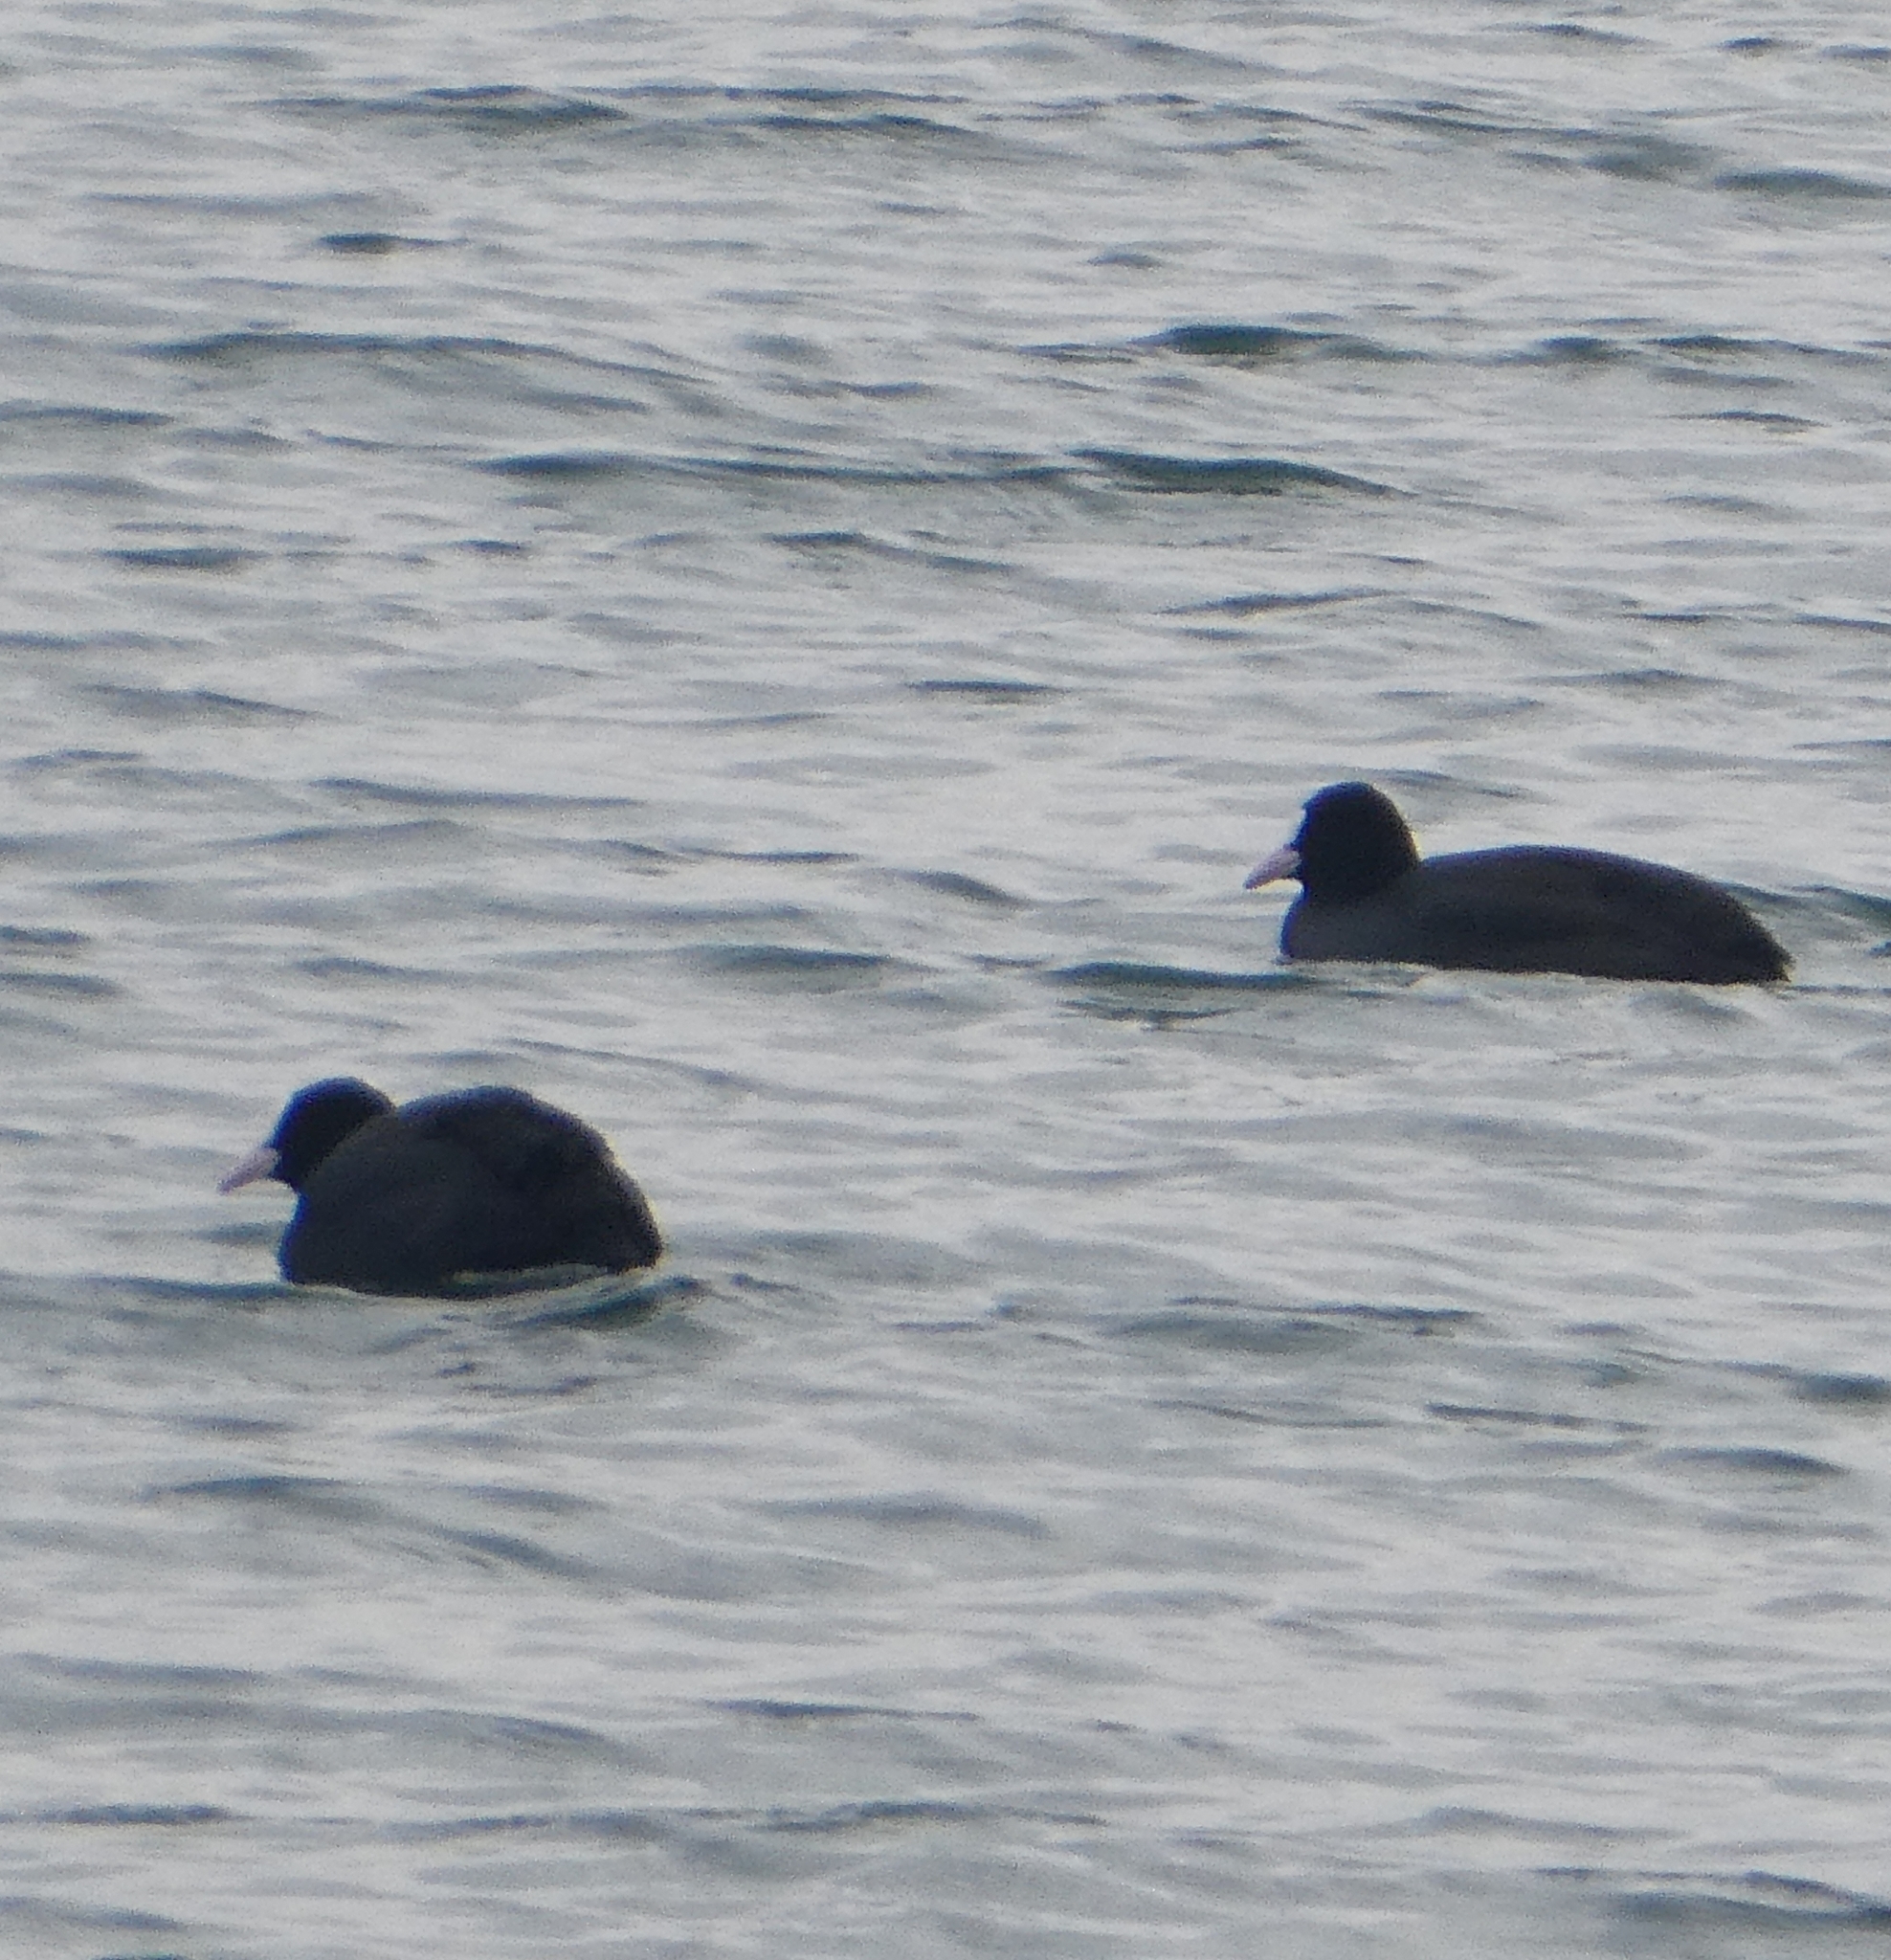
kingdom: Animalia
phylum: Chordata
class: Aves
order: Gruiformes
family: Rallidae
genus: Fulica
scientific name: Fulica atra
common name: Eurasian coot
